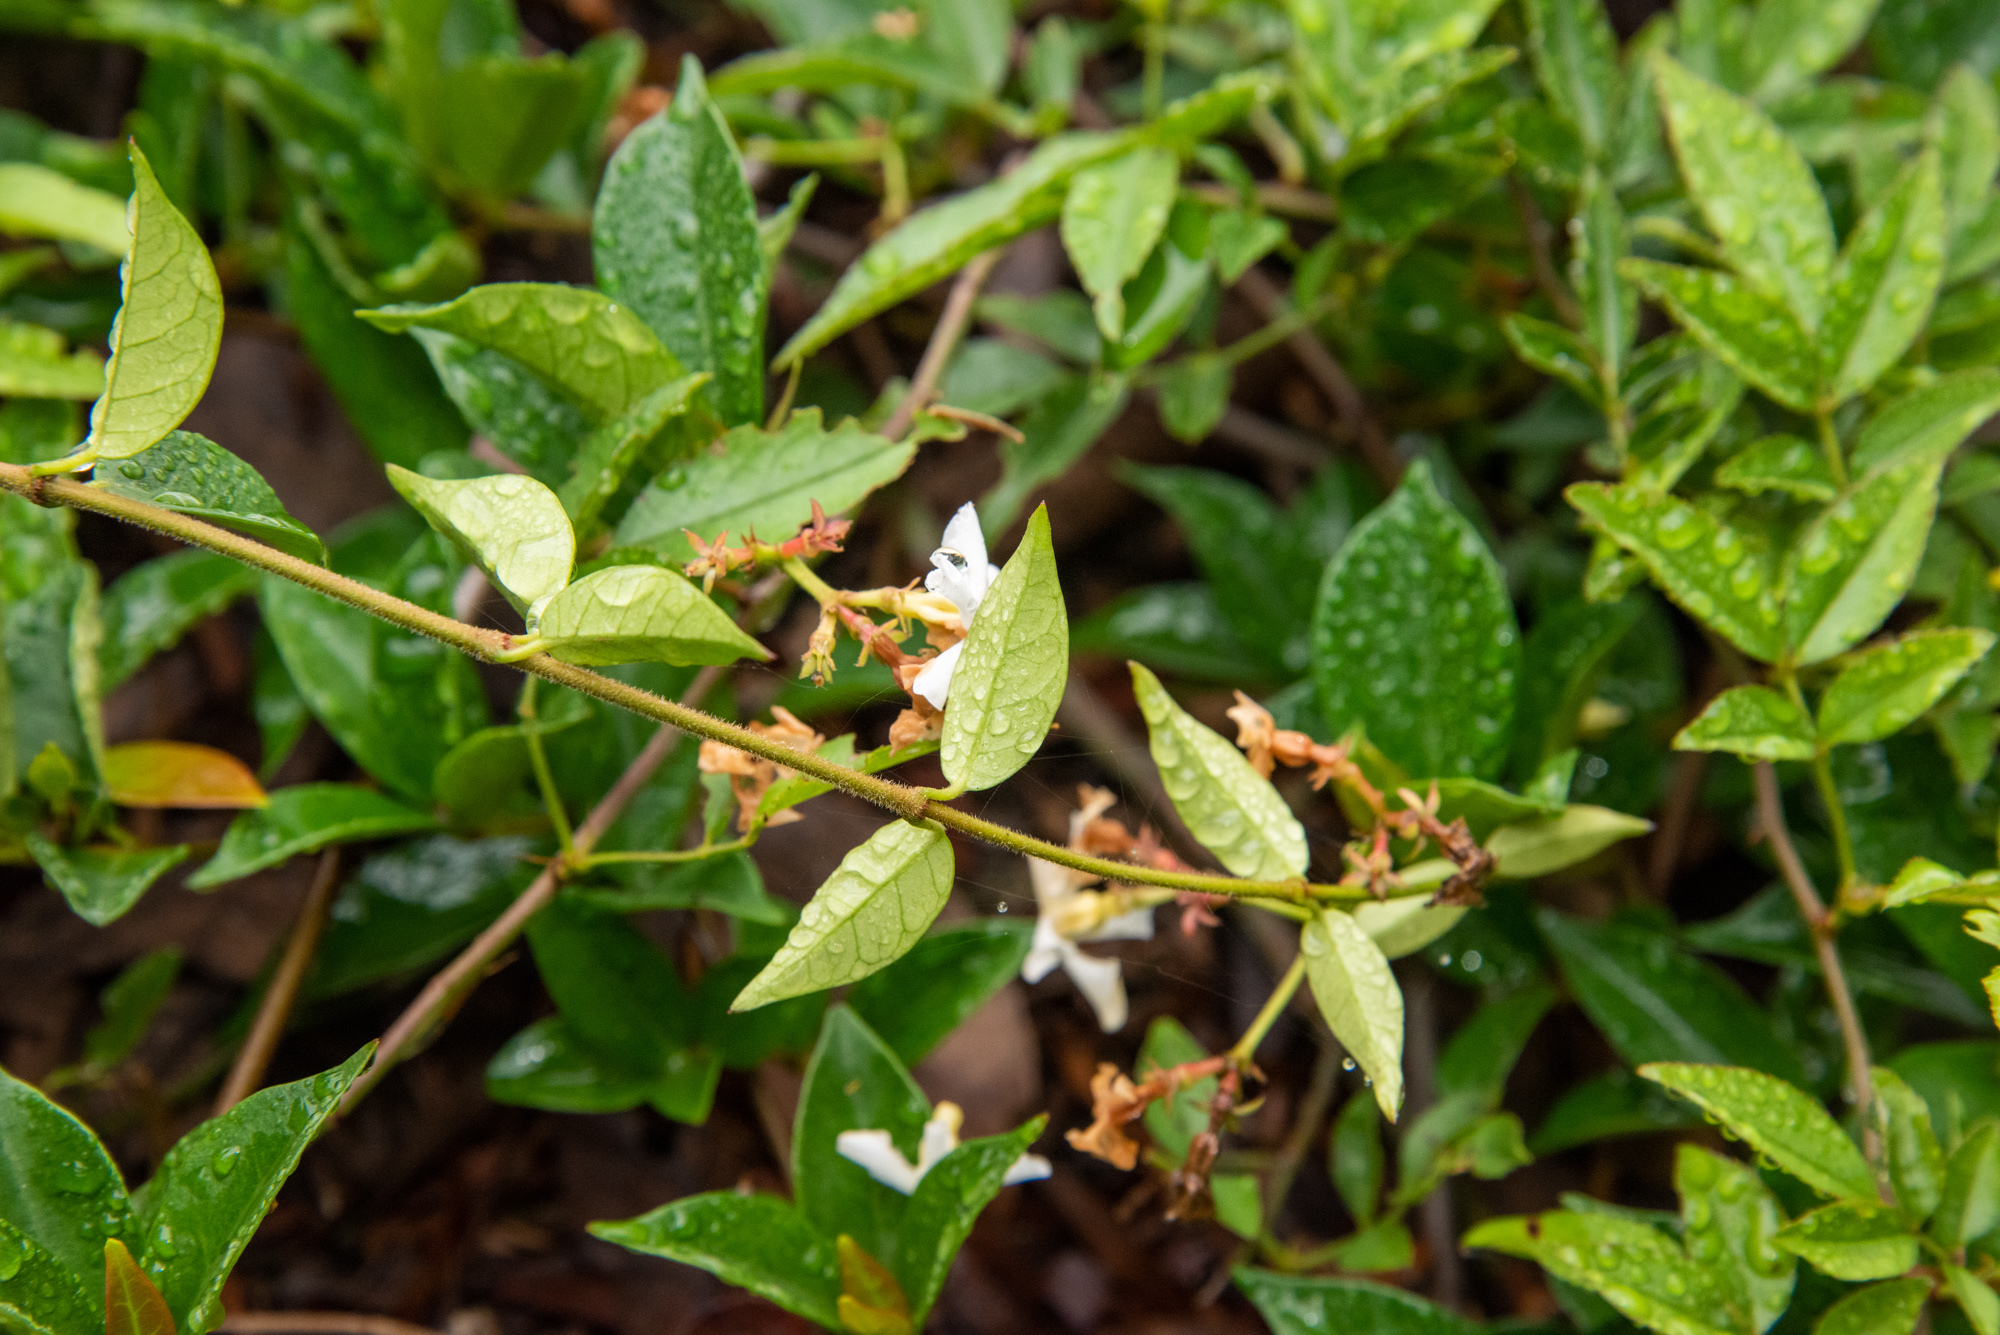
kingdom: Plantae
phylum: Tracheophyta
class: Magnoliopsida
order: Gentianales
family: Apocynaceae
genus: Trachelospermum
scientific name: Trachelospermum jasminoides
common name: Confederate jasmine
